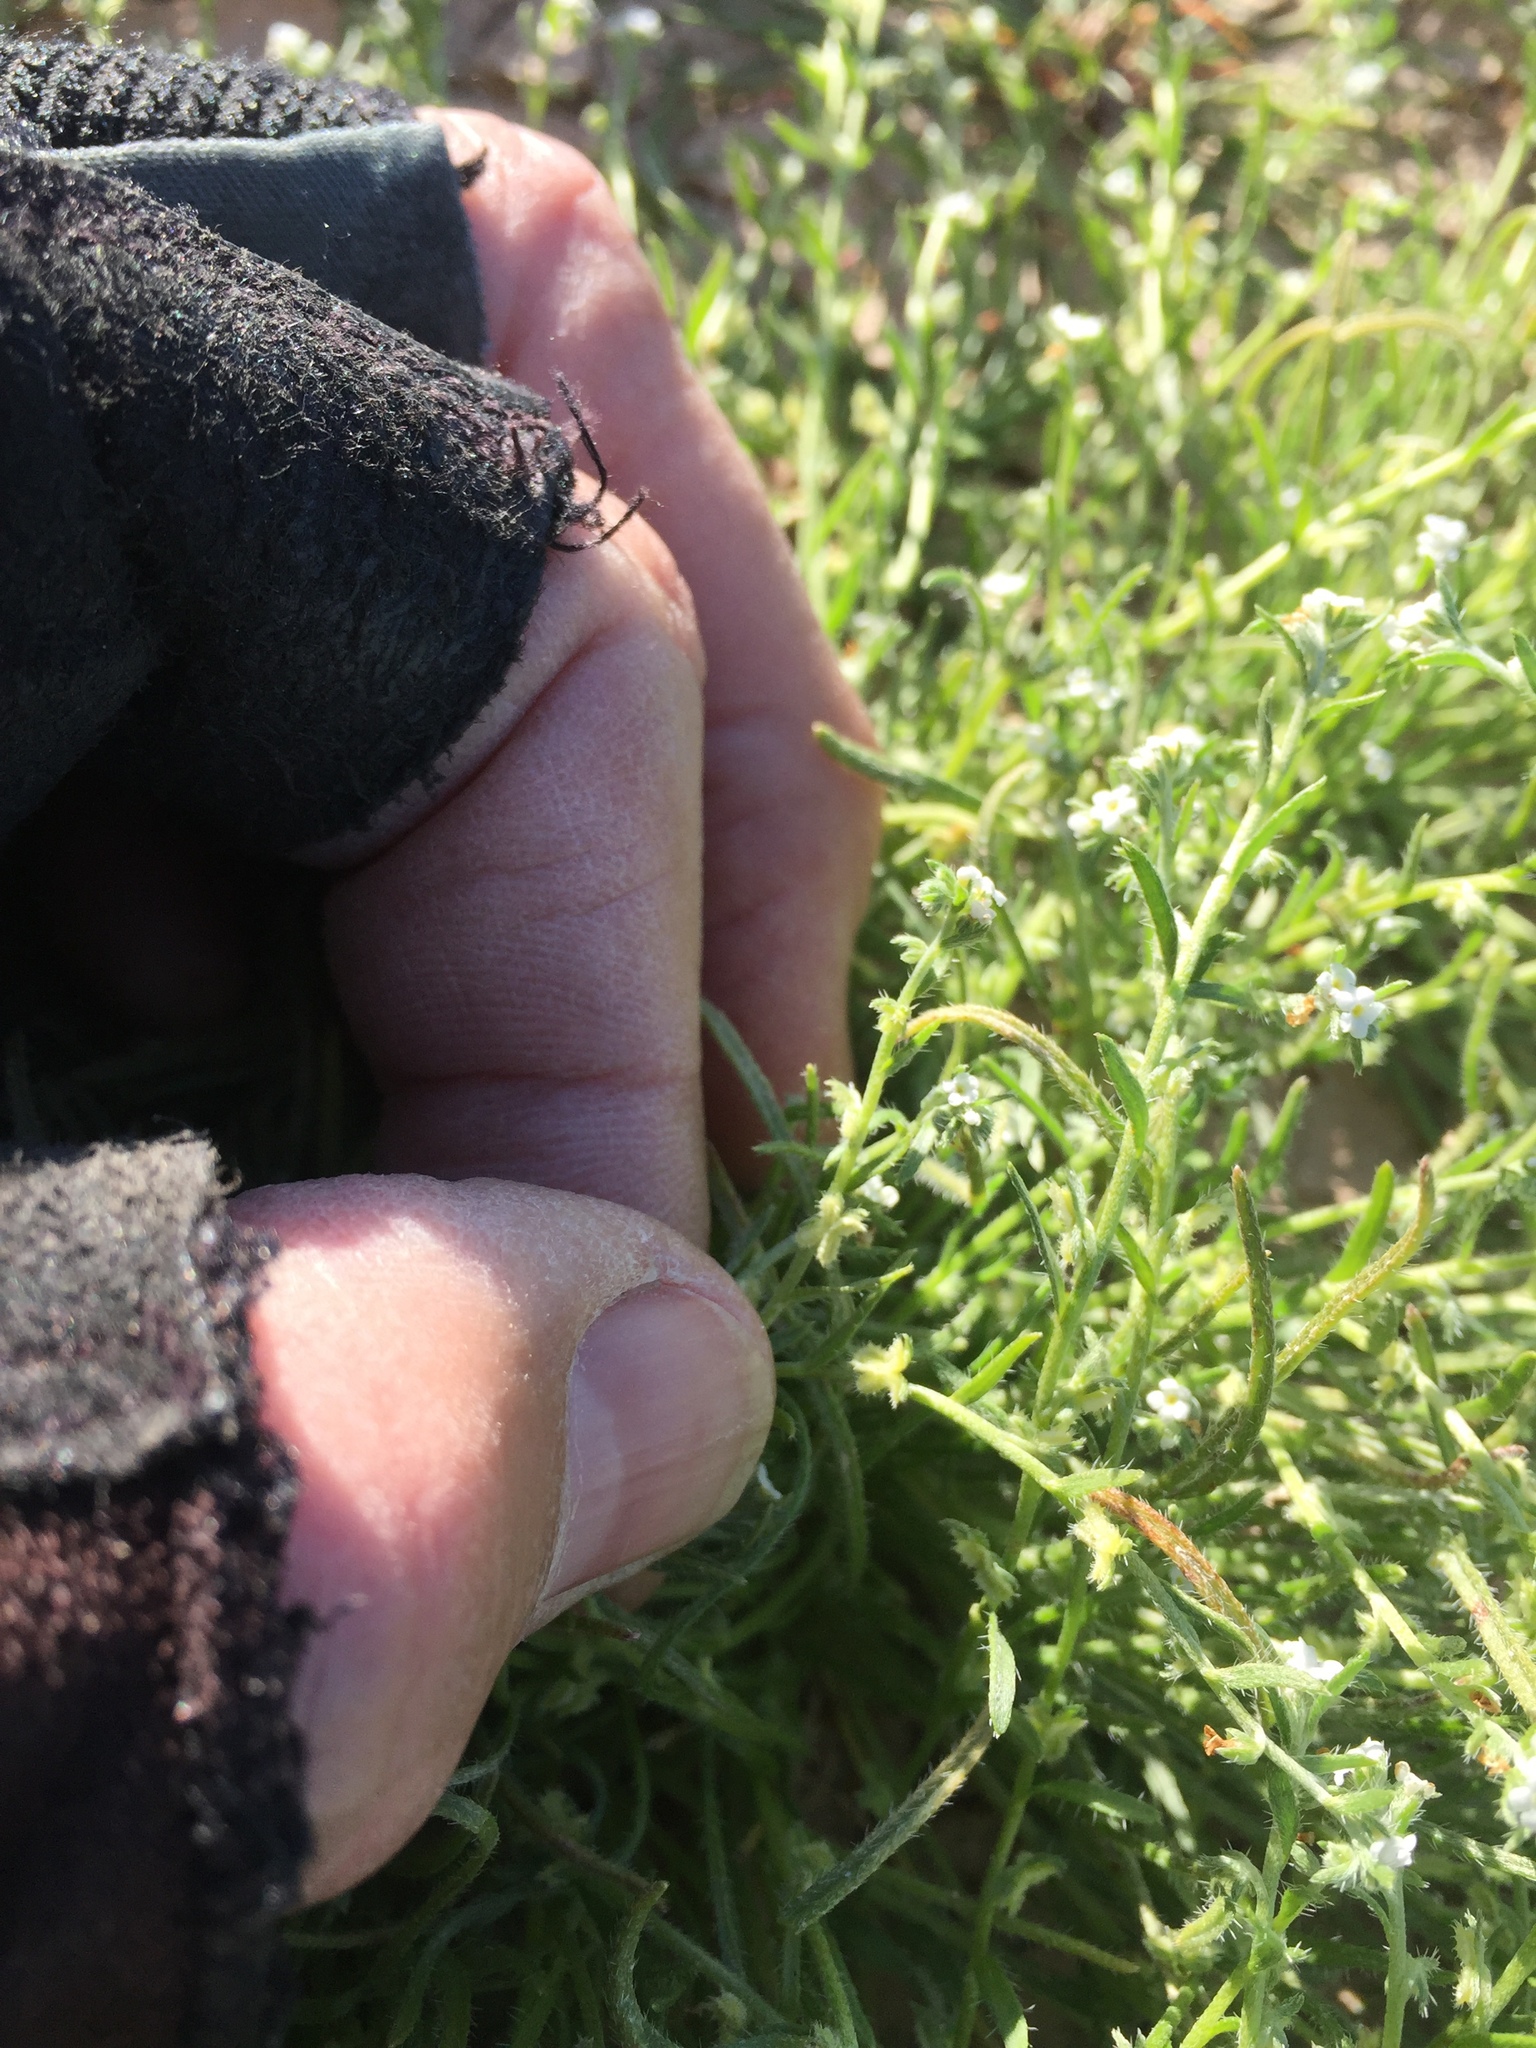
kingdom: Plantae
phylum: Tracheophyta
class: Magnoliopsida
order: Boraginales
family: Boraginaceae
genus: Pectocarya
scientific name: Pectocarya heterocarpa
